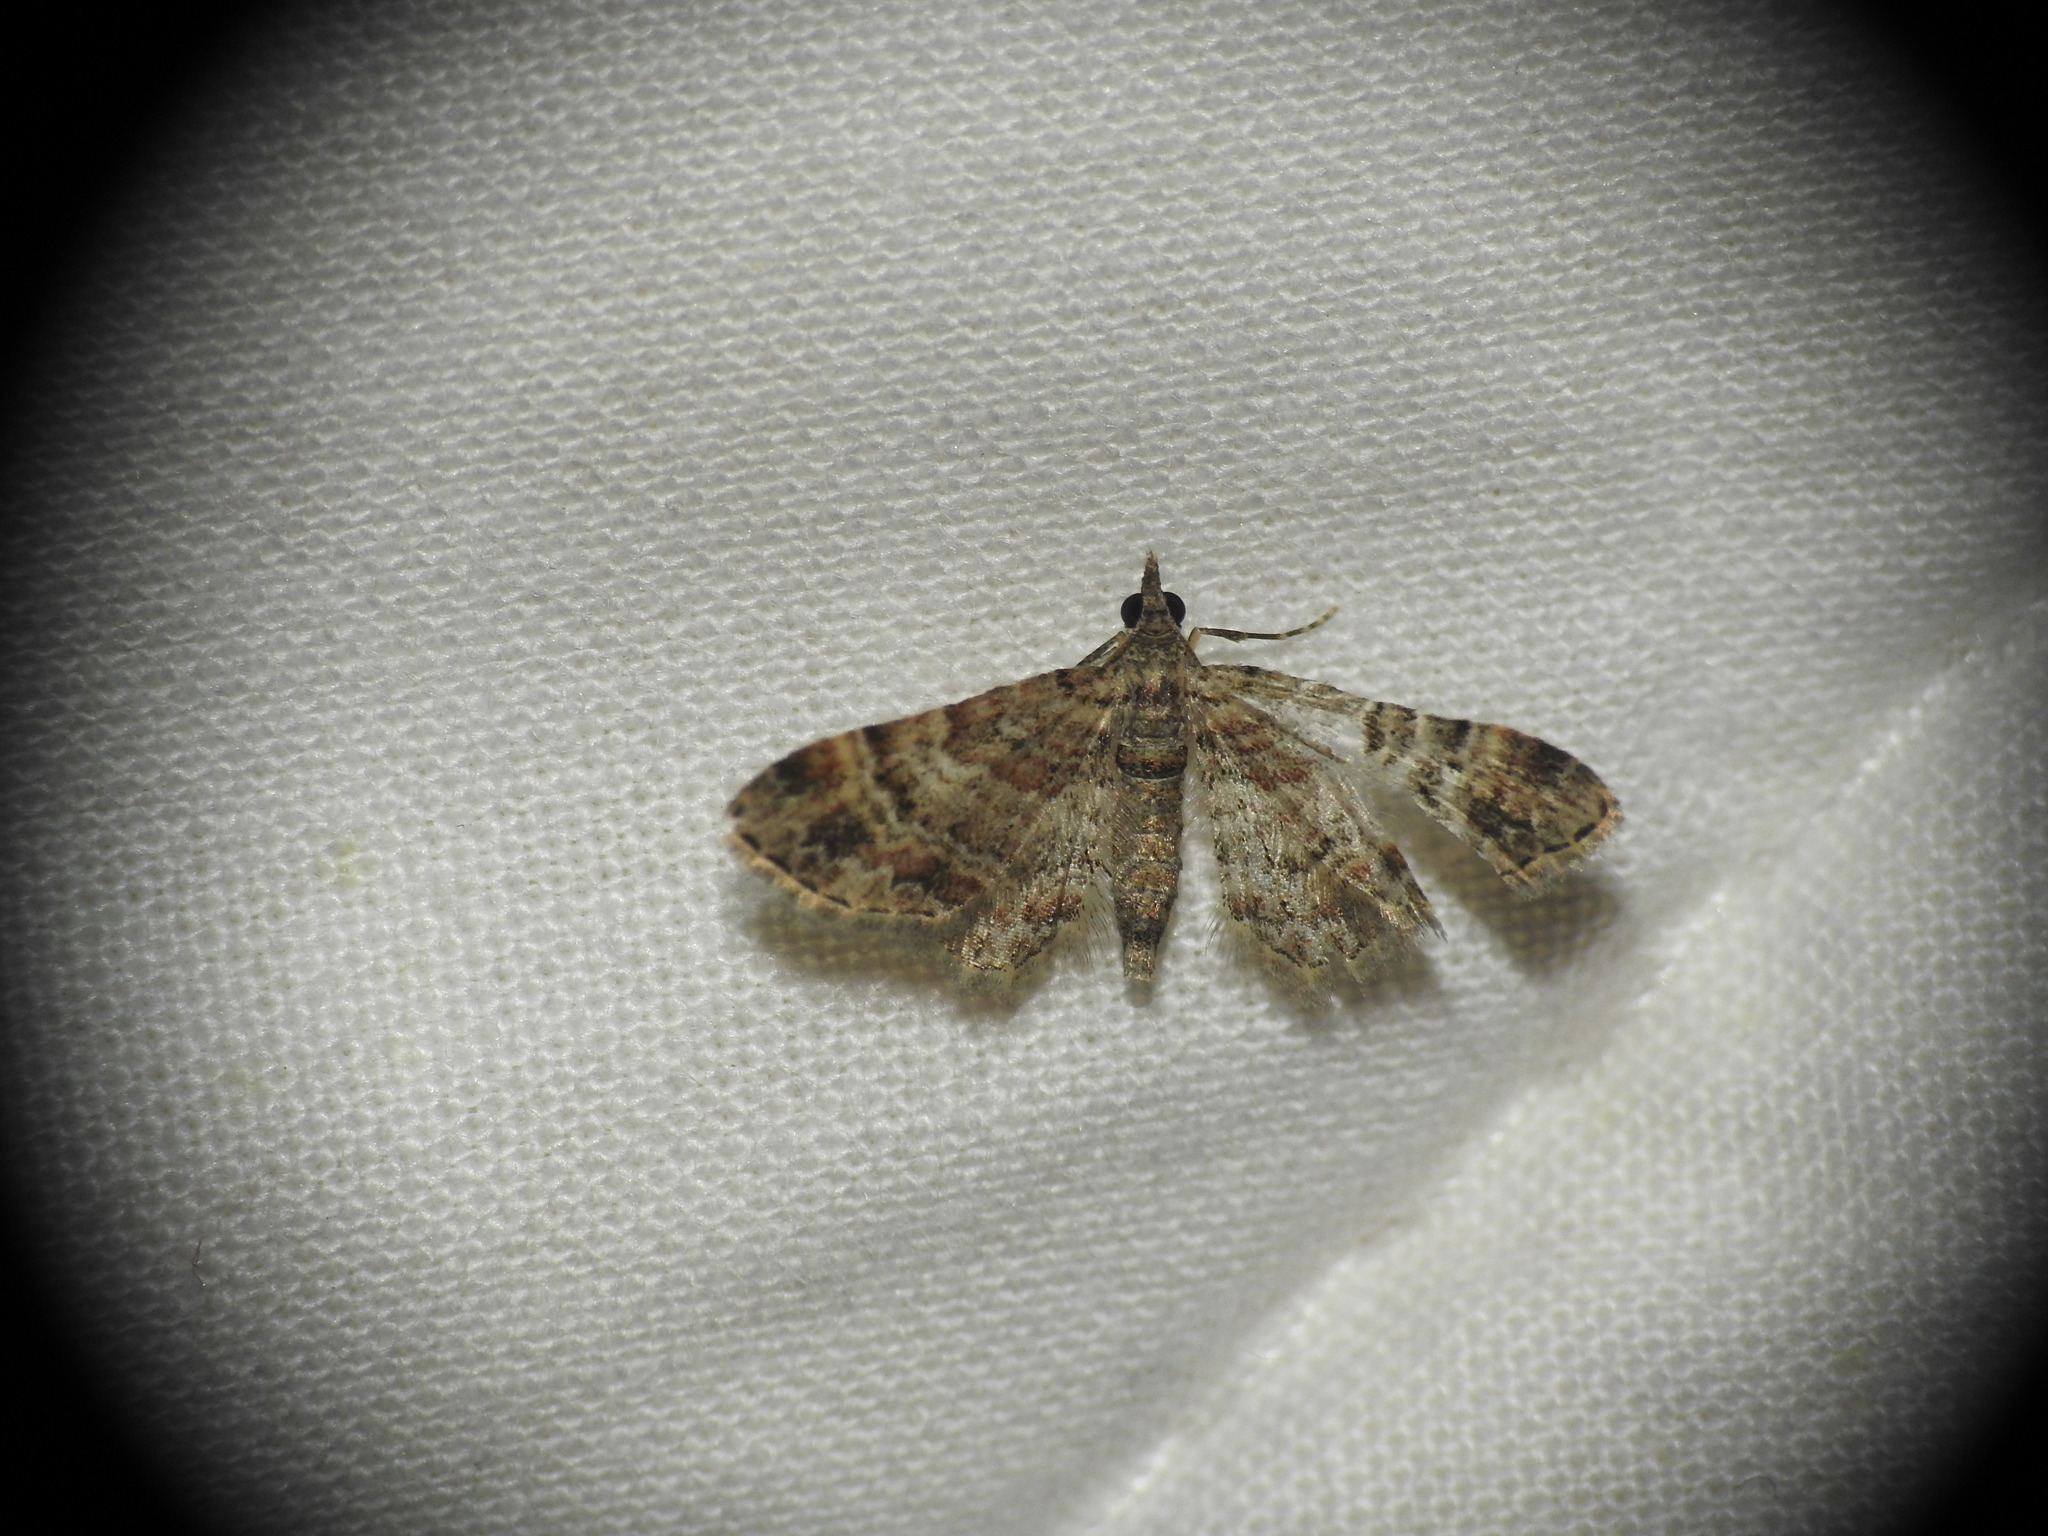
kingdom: Animalia
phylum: Arthropoda
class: Insecta
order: Lepidoptera
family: Geometridae
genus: Gymnoscelis
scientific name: Gymnoscelis rufifasciata
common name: Double-striped pug
